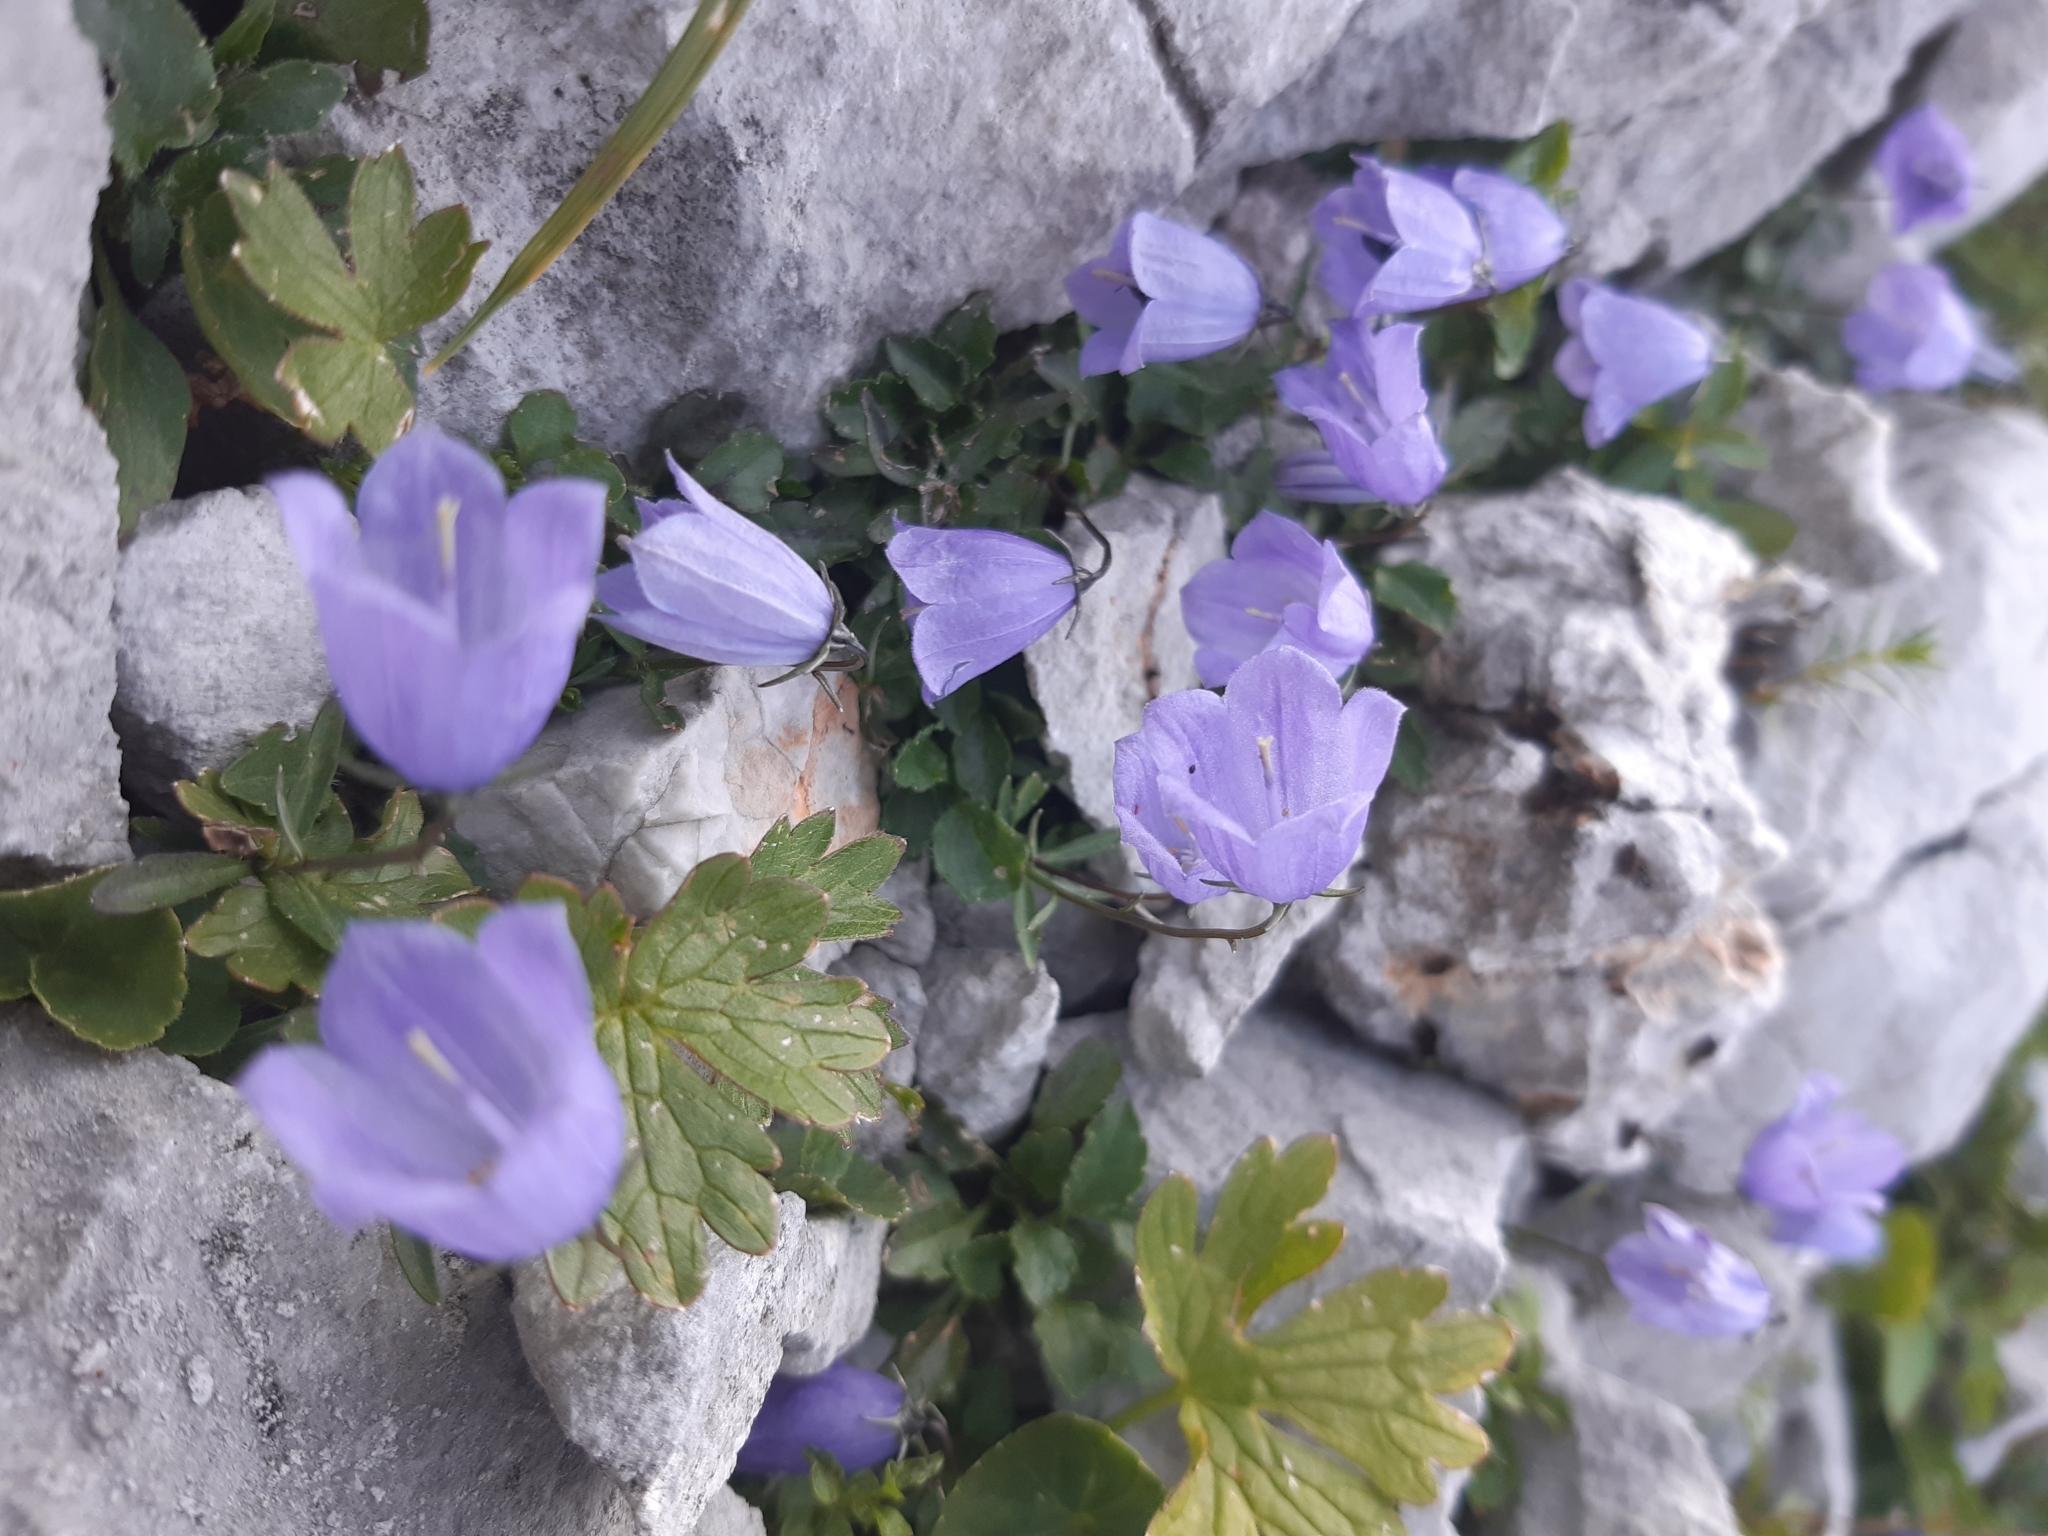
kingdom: Plantae
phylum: Tracheophyta
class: Magnoliopsida
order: Asterales
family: Campanulaceae
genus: Campanula
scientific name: Campanula cochleariifolia
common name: Fairies'-thimbles
